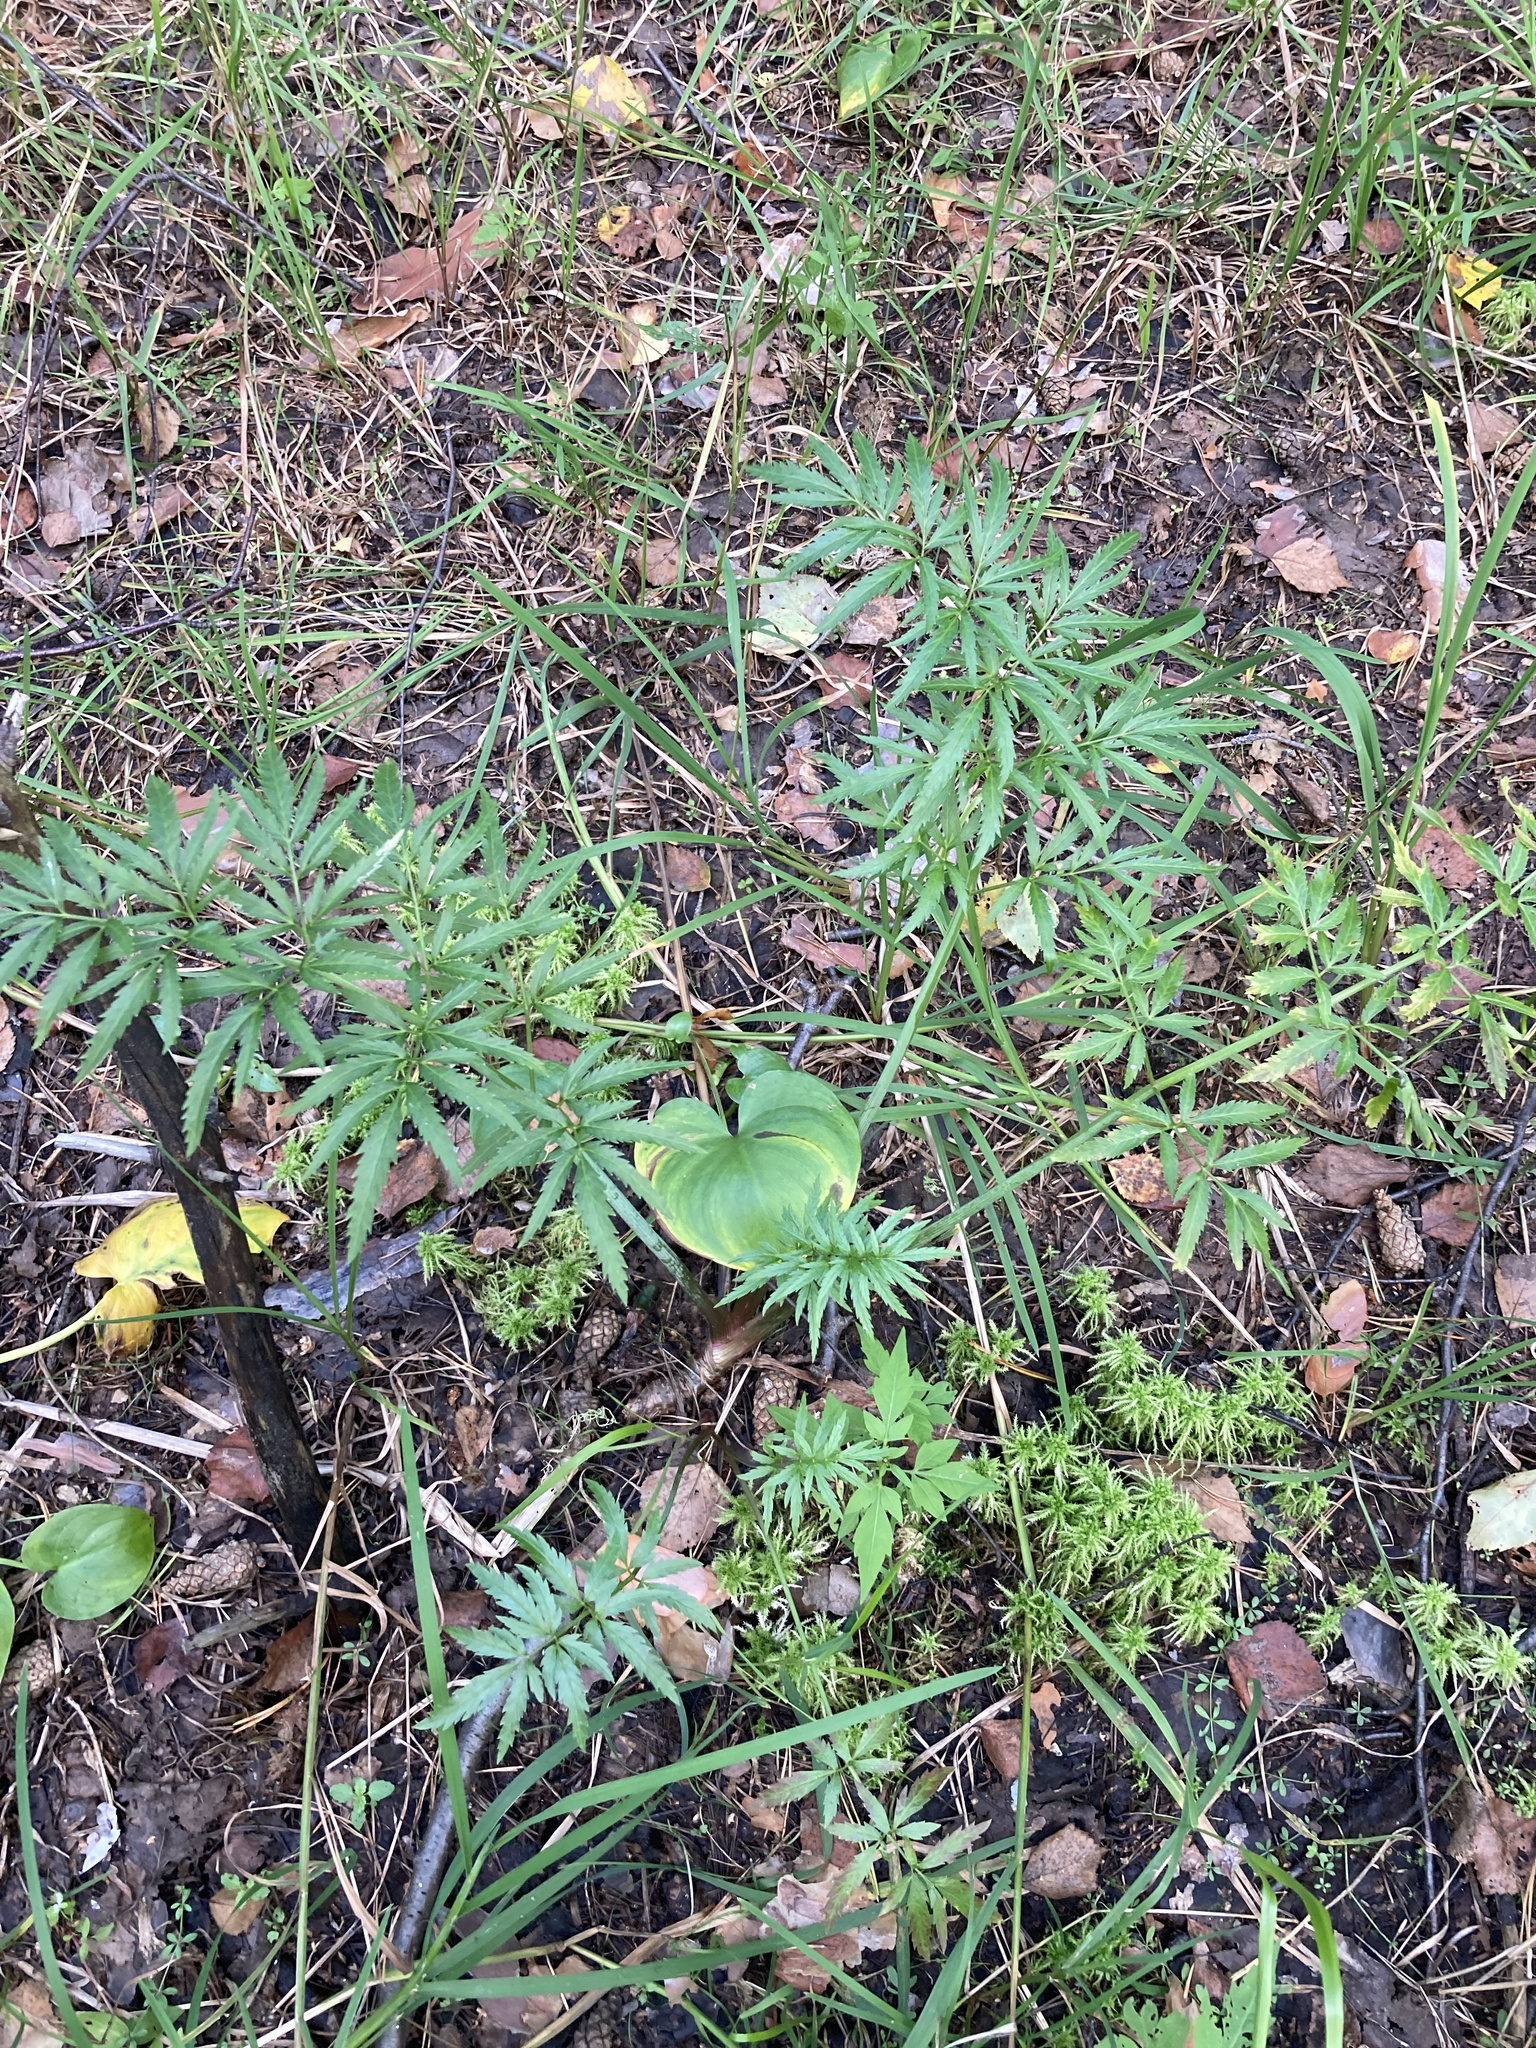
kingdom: Plantae
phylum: Tracheophyta
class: Magnoliopsida
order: Apiales
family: Apiaceae
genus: Cicuta
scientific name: Cicuta virosa
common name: Cowbane
